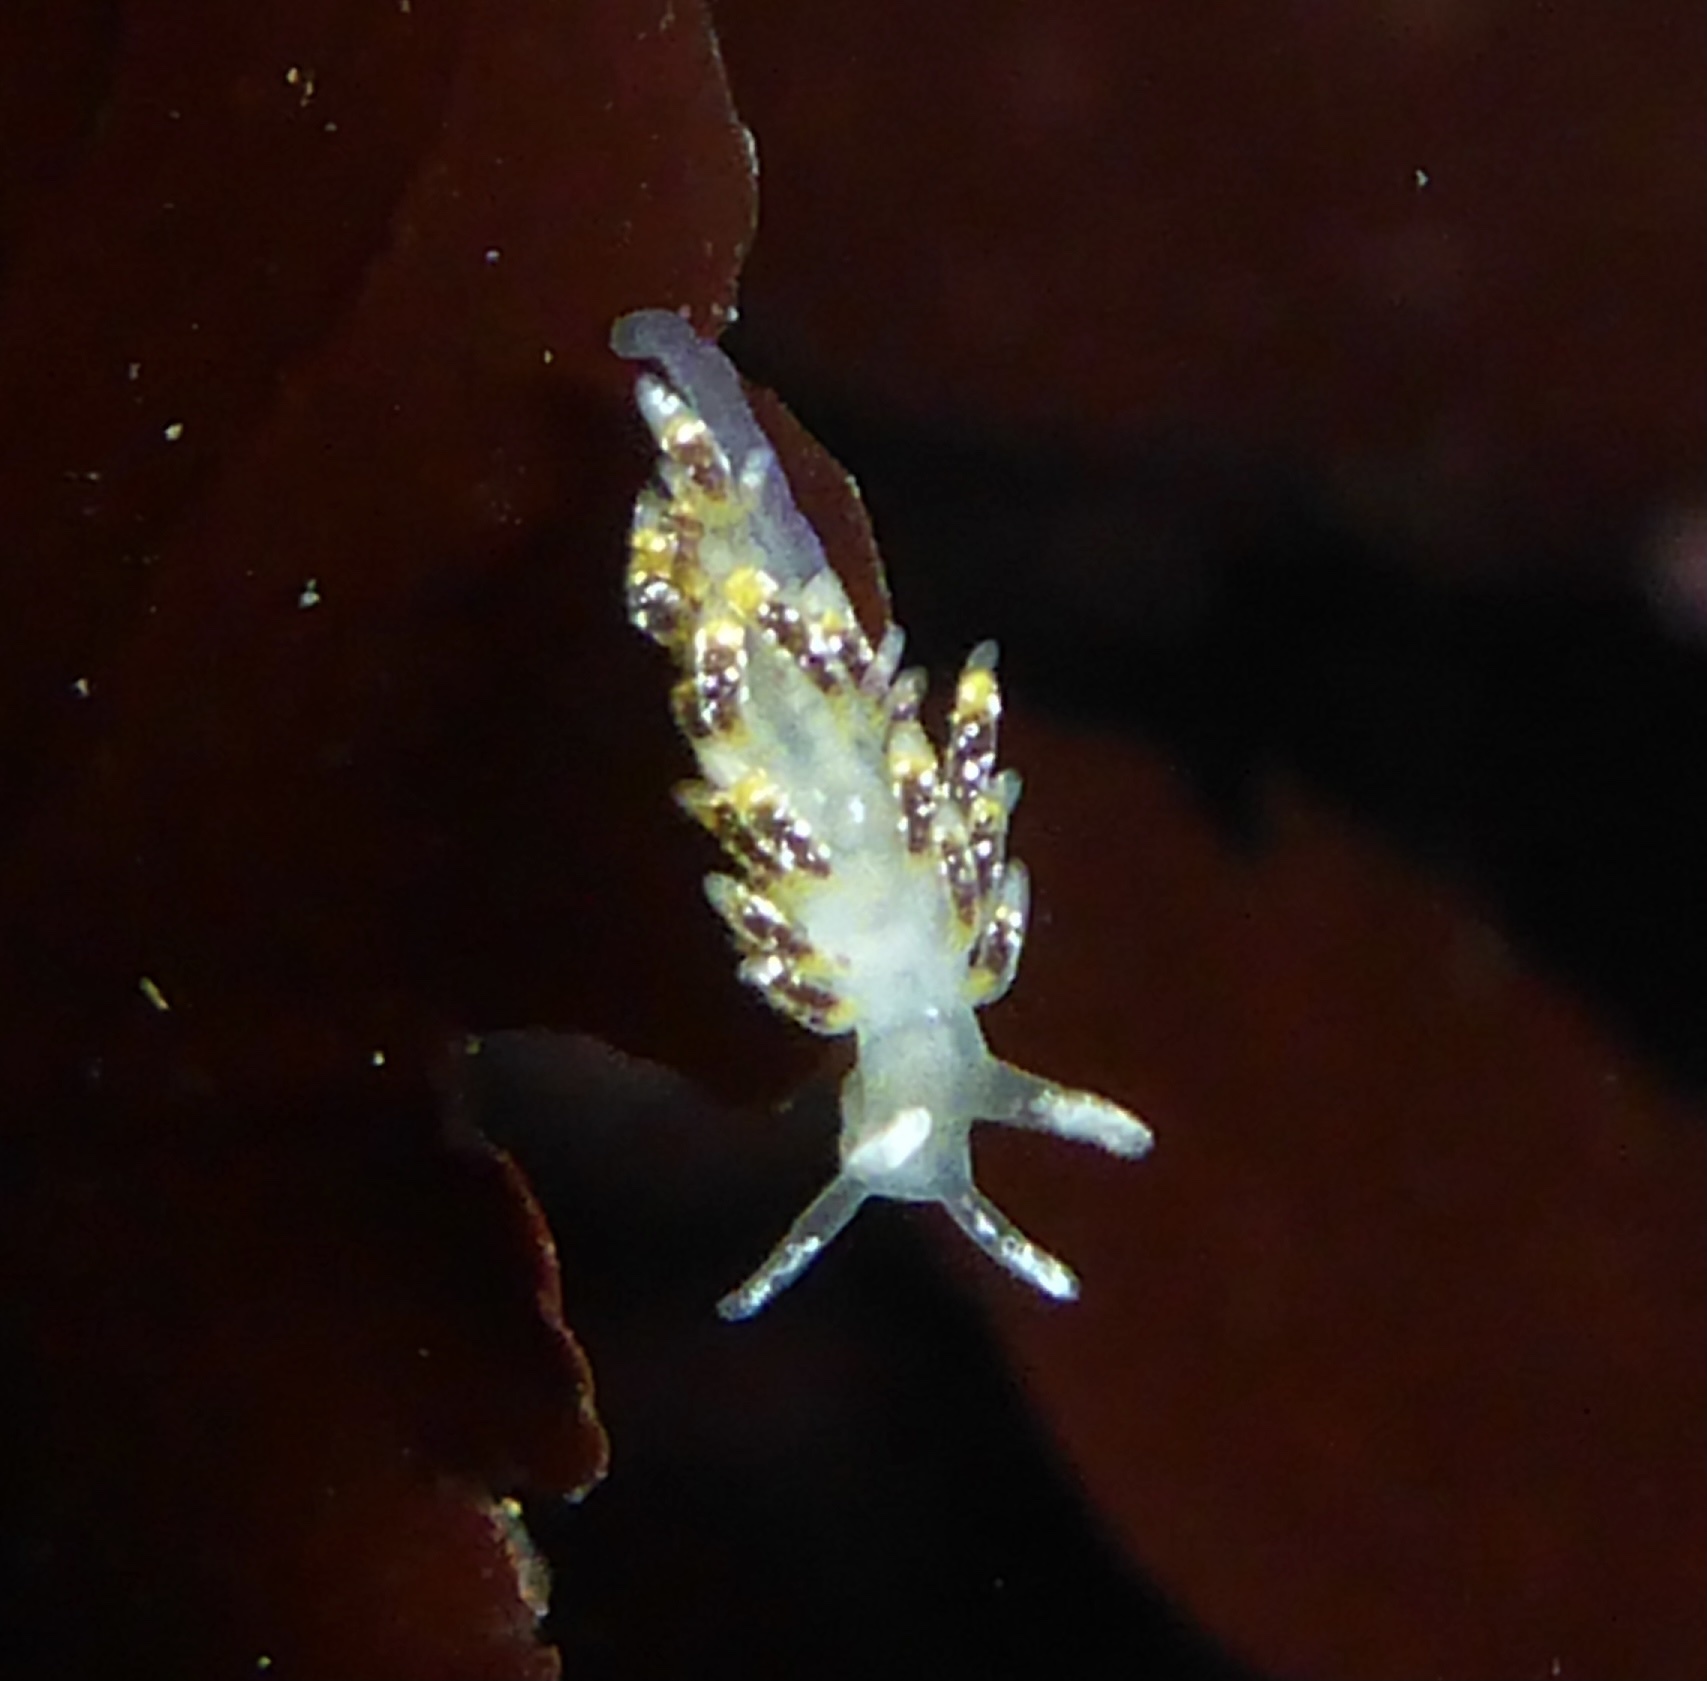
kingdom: Animalia
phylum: Mollusca
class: Gastropoda
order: Nudibranchia
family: Trinchesiidae
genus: Zelentia
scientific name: Zelentia fulgens
